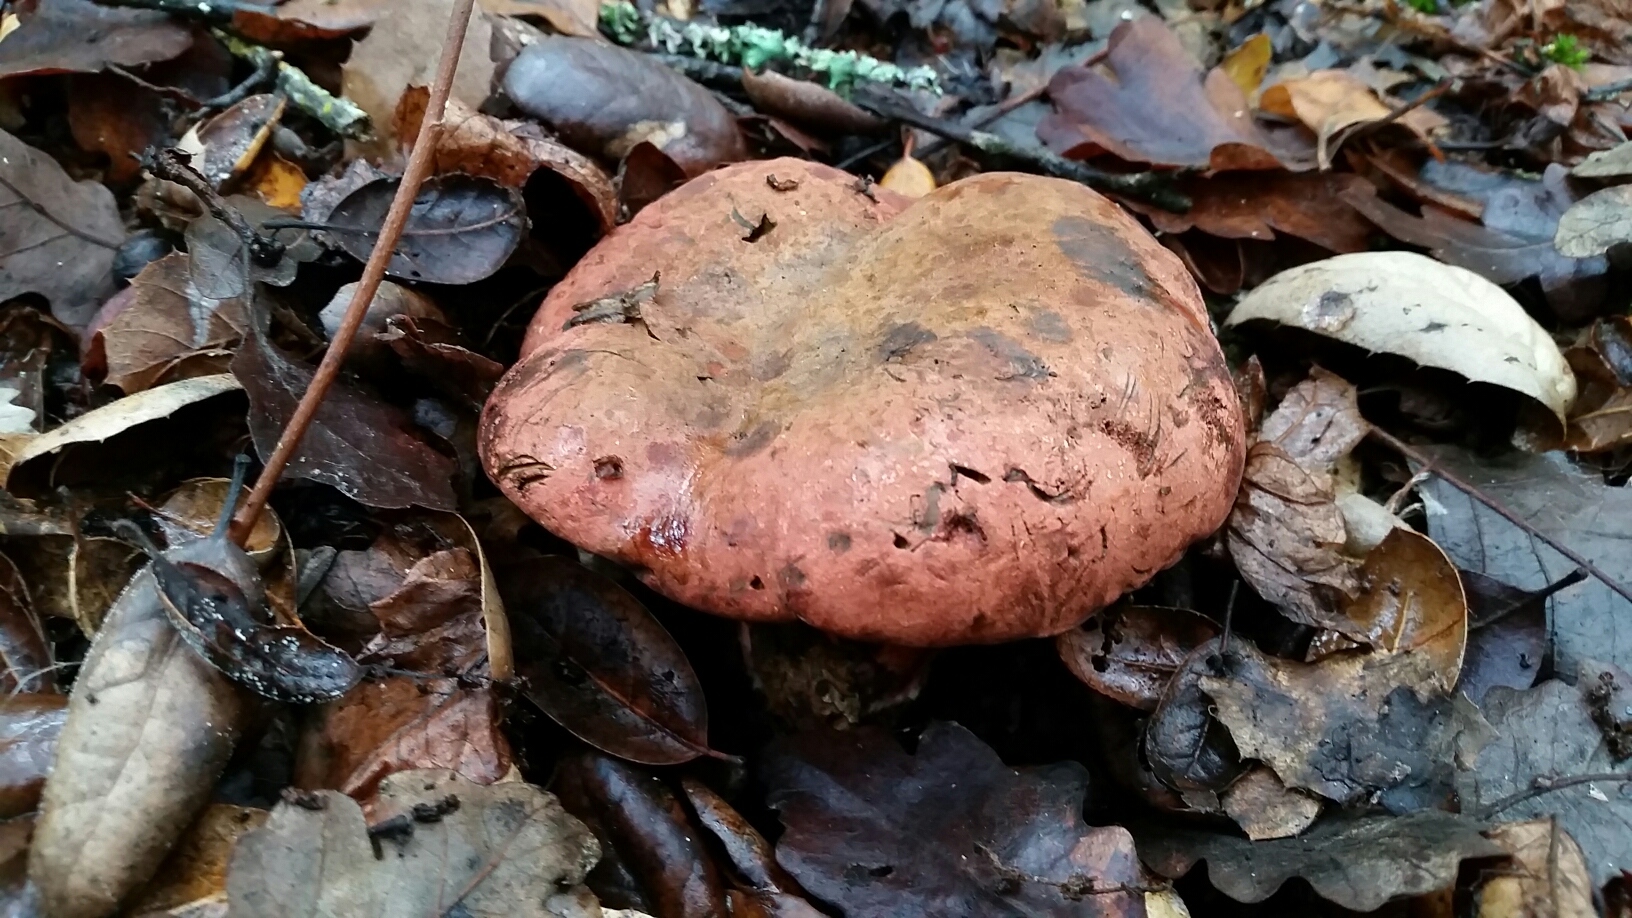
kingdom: Fungi
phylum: Basidiomycota
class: Agaricomycetes
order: Boletales
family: Boletaceae
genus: Suillellus
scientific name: Suillellus amygdalinus
